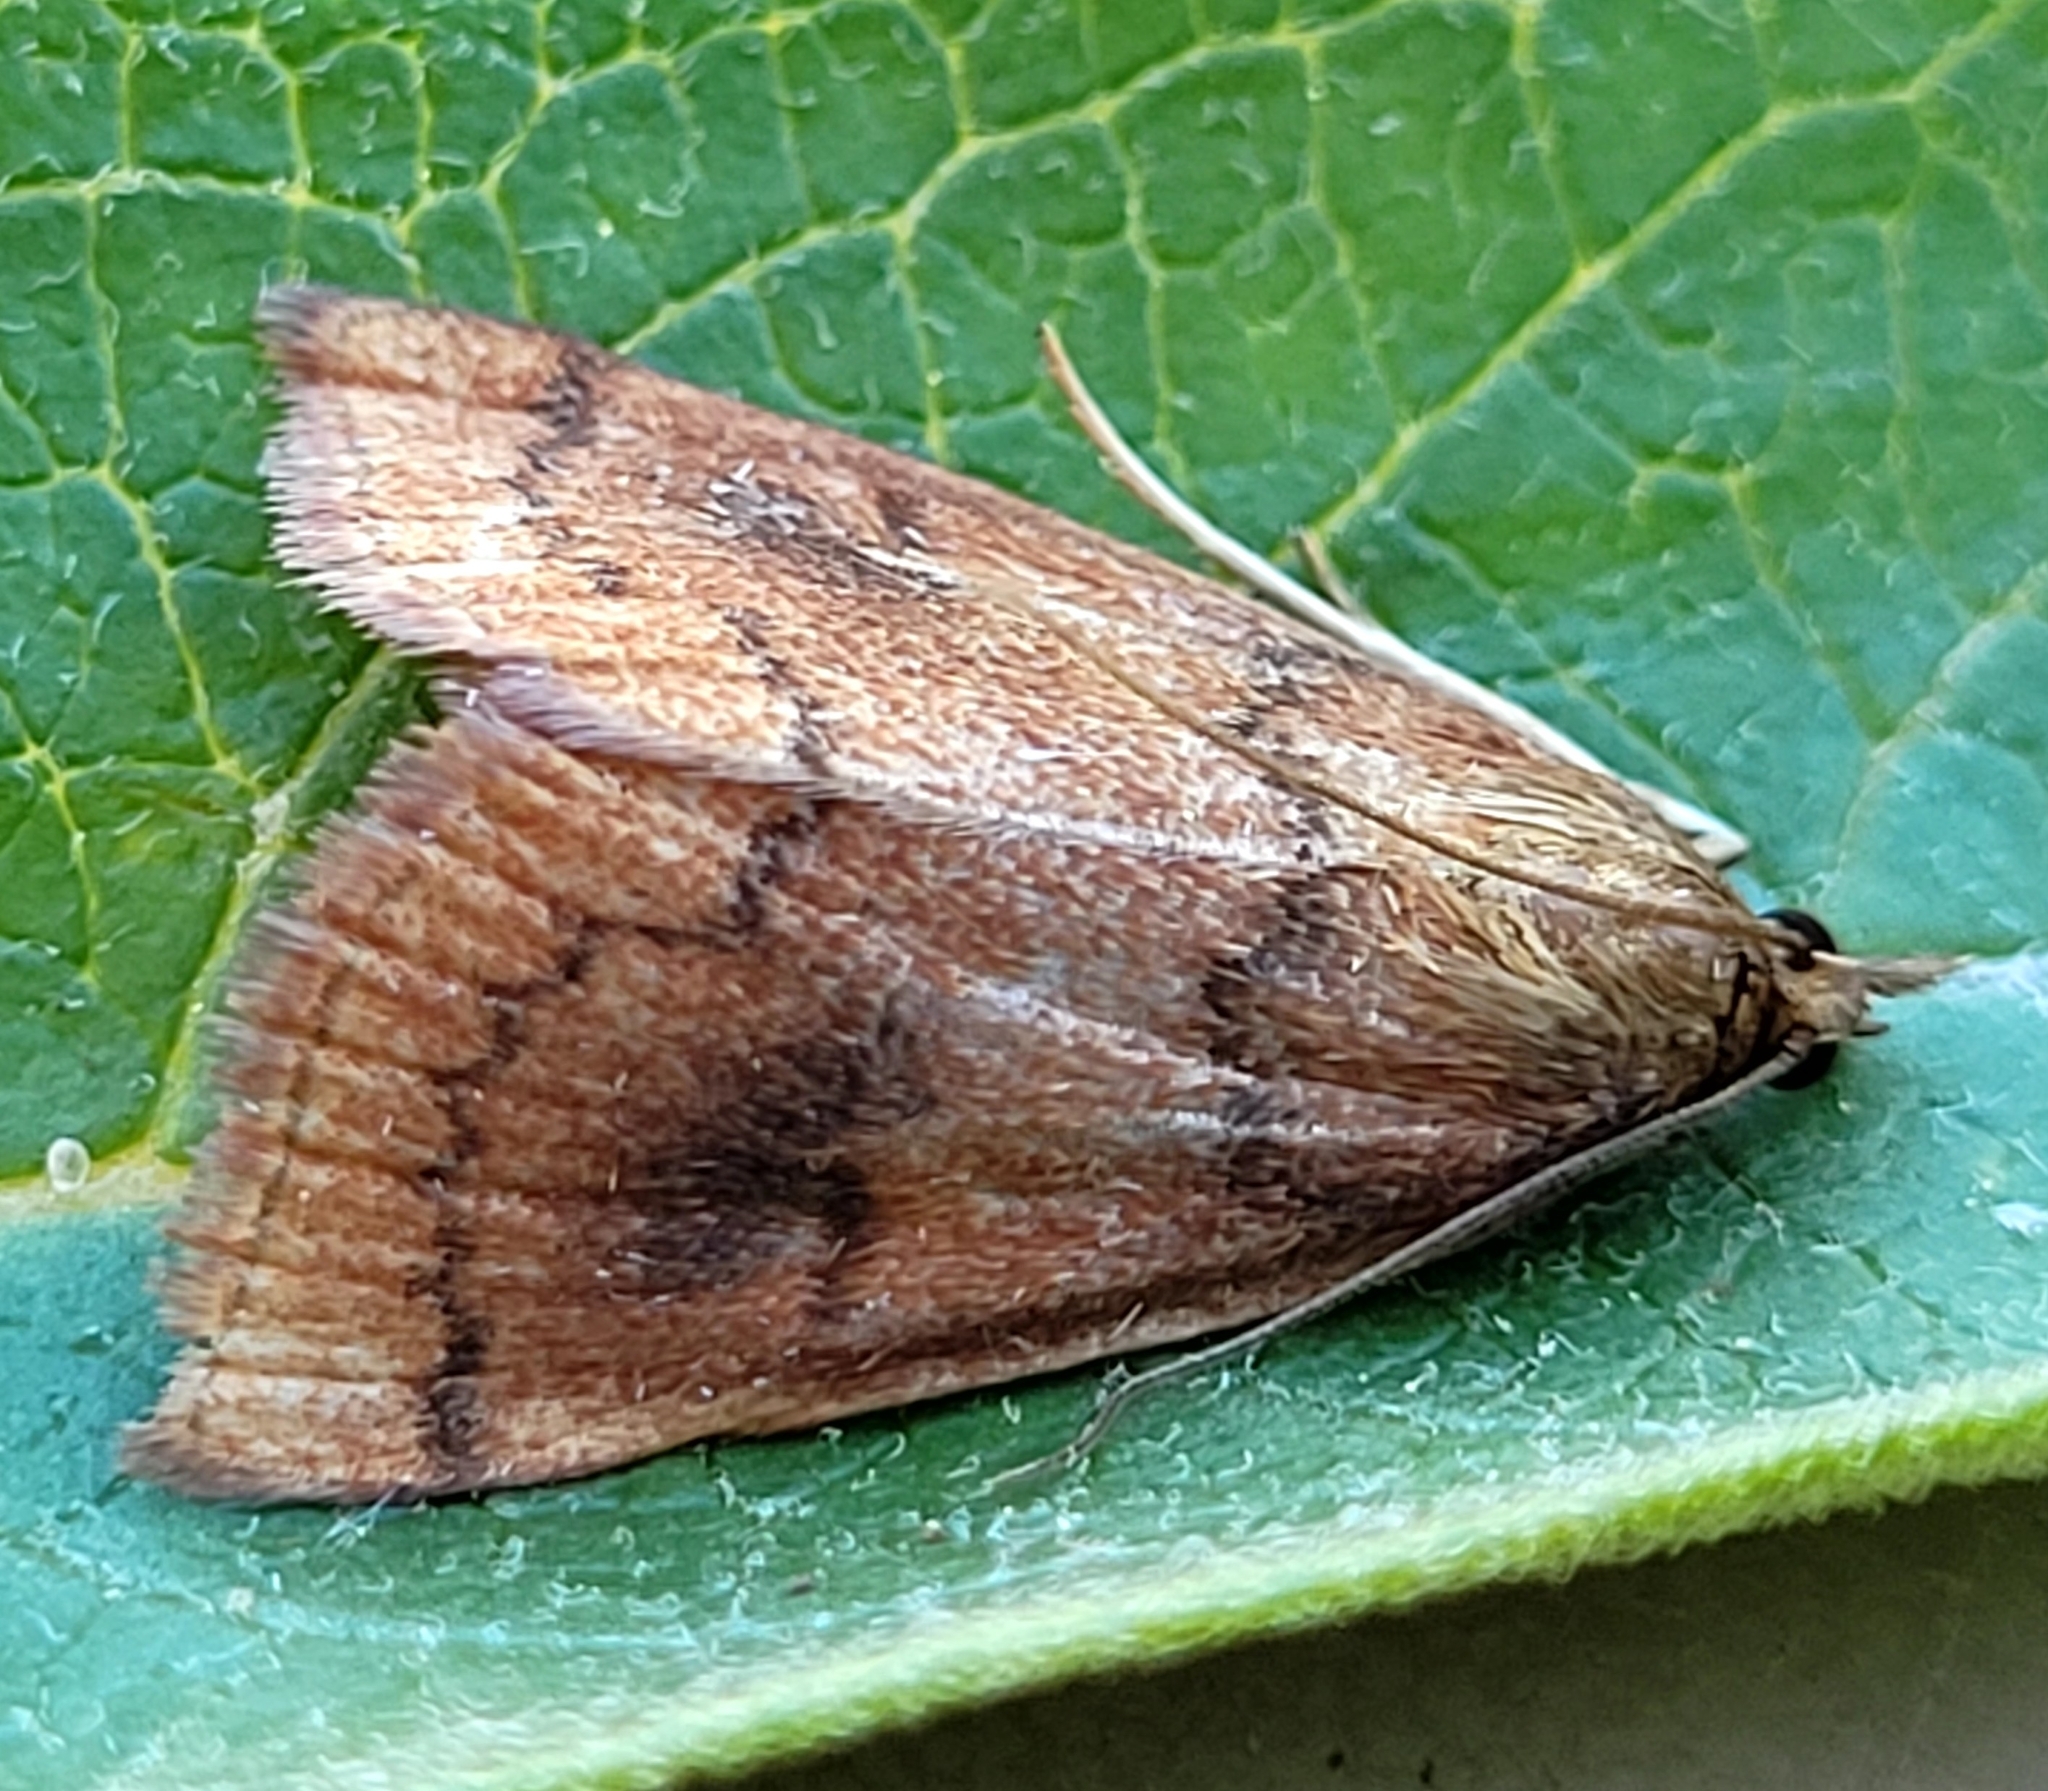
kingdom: Animalia
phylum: Arthropoda
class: Insecta
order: Lepidoptera
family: Crambidae
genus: Fumibotys
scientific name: Fumibotys fumalis
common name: Mint root borer moth
